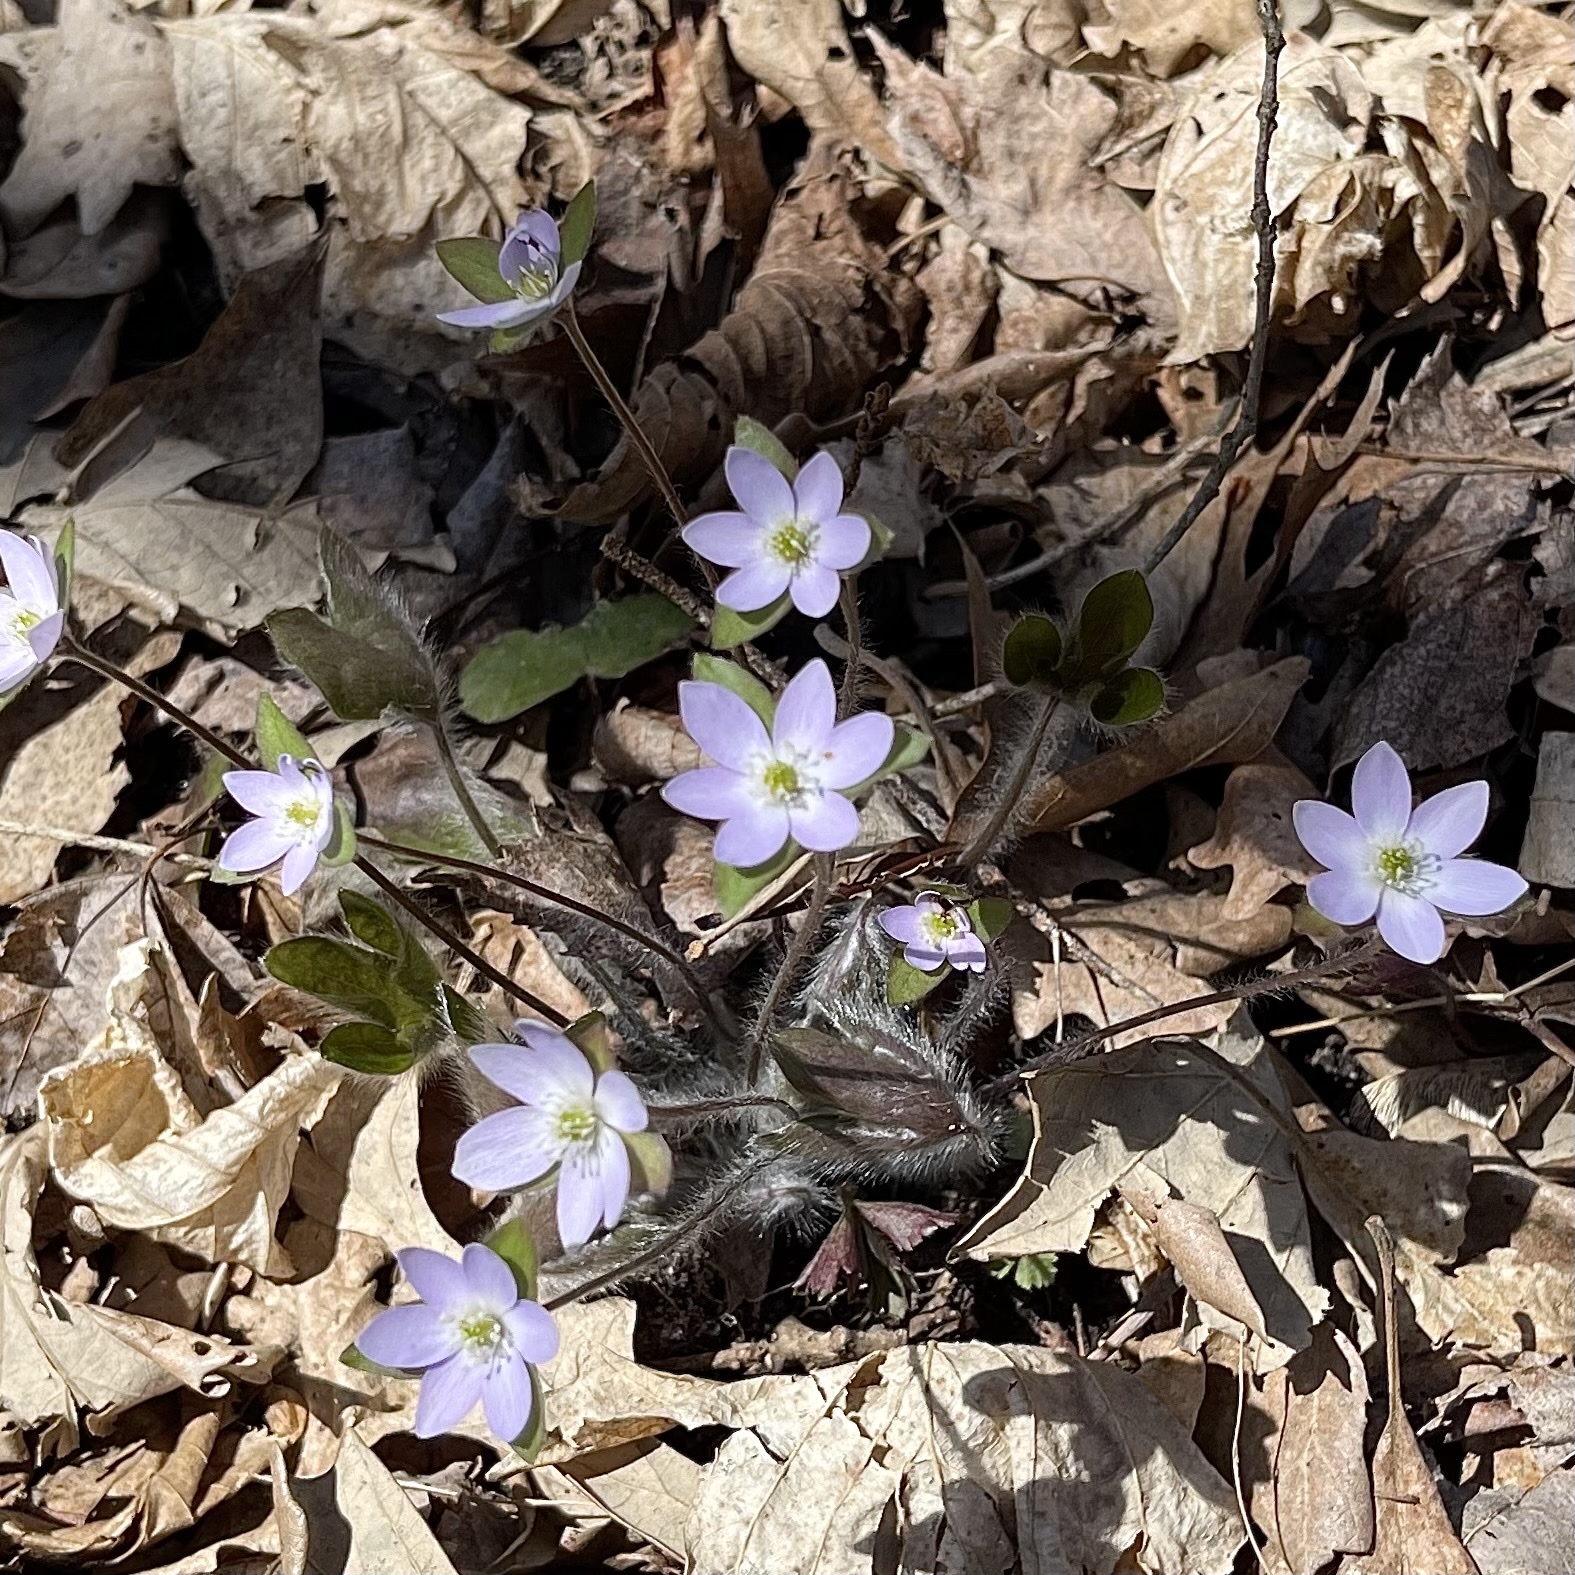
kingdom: Plantae
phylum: Tracheophyta
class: Magnoliopsida
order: Ranunculales
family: Ranunculaceae
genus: Hepatica
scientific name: Hepatica americana
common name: American hepatica
